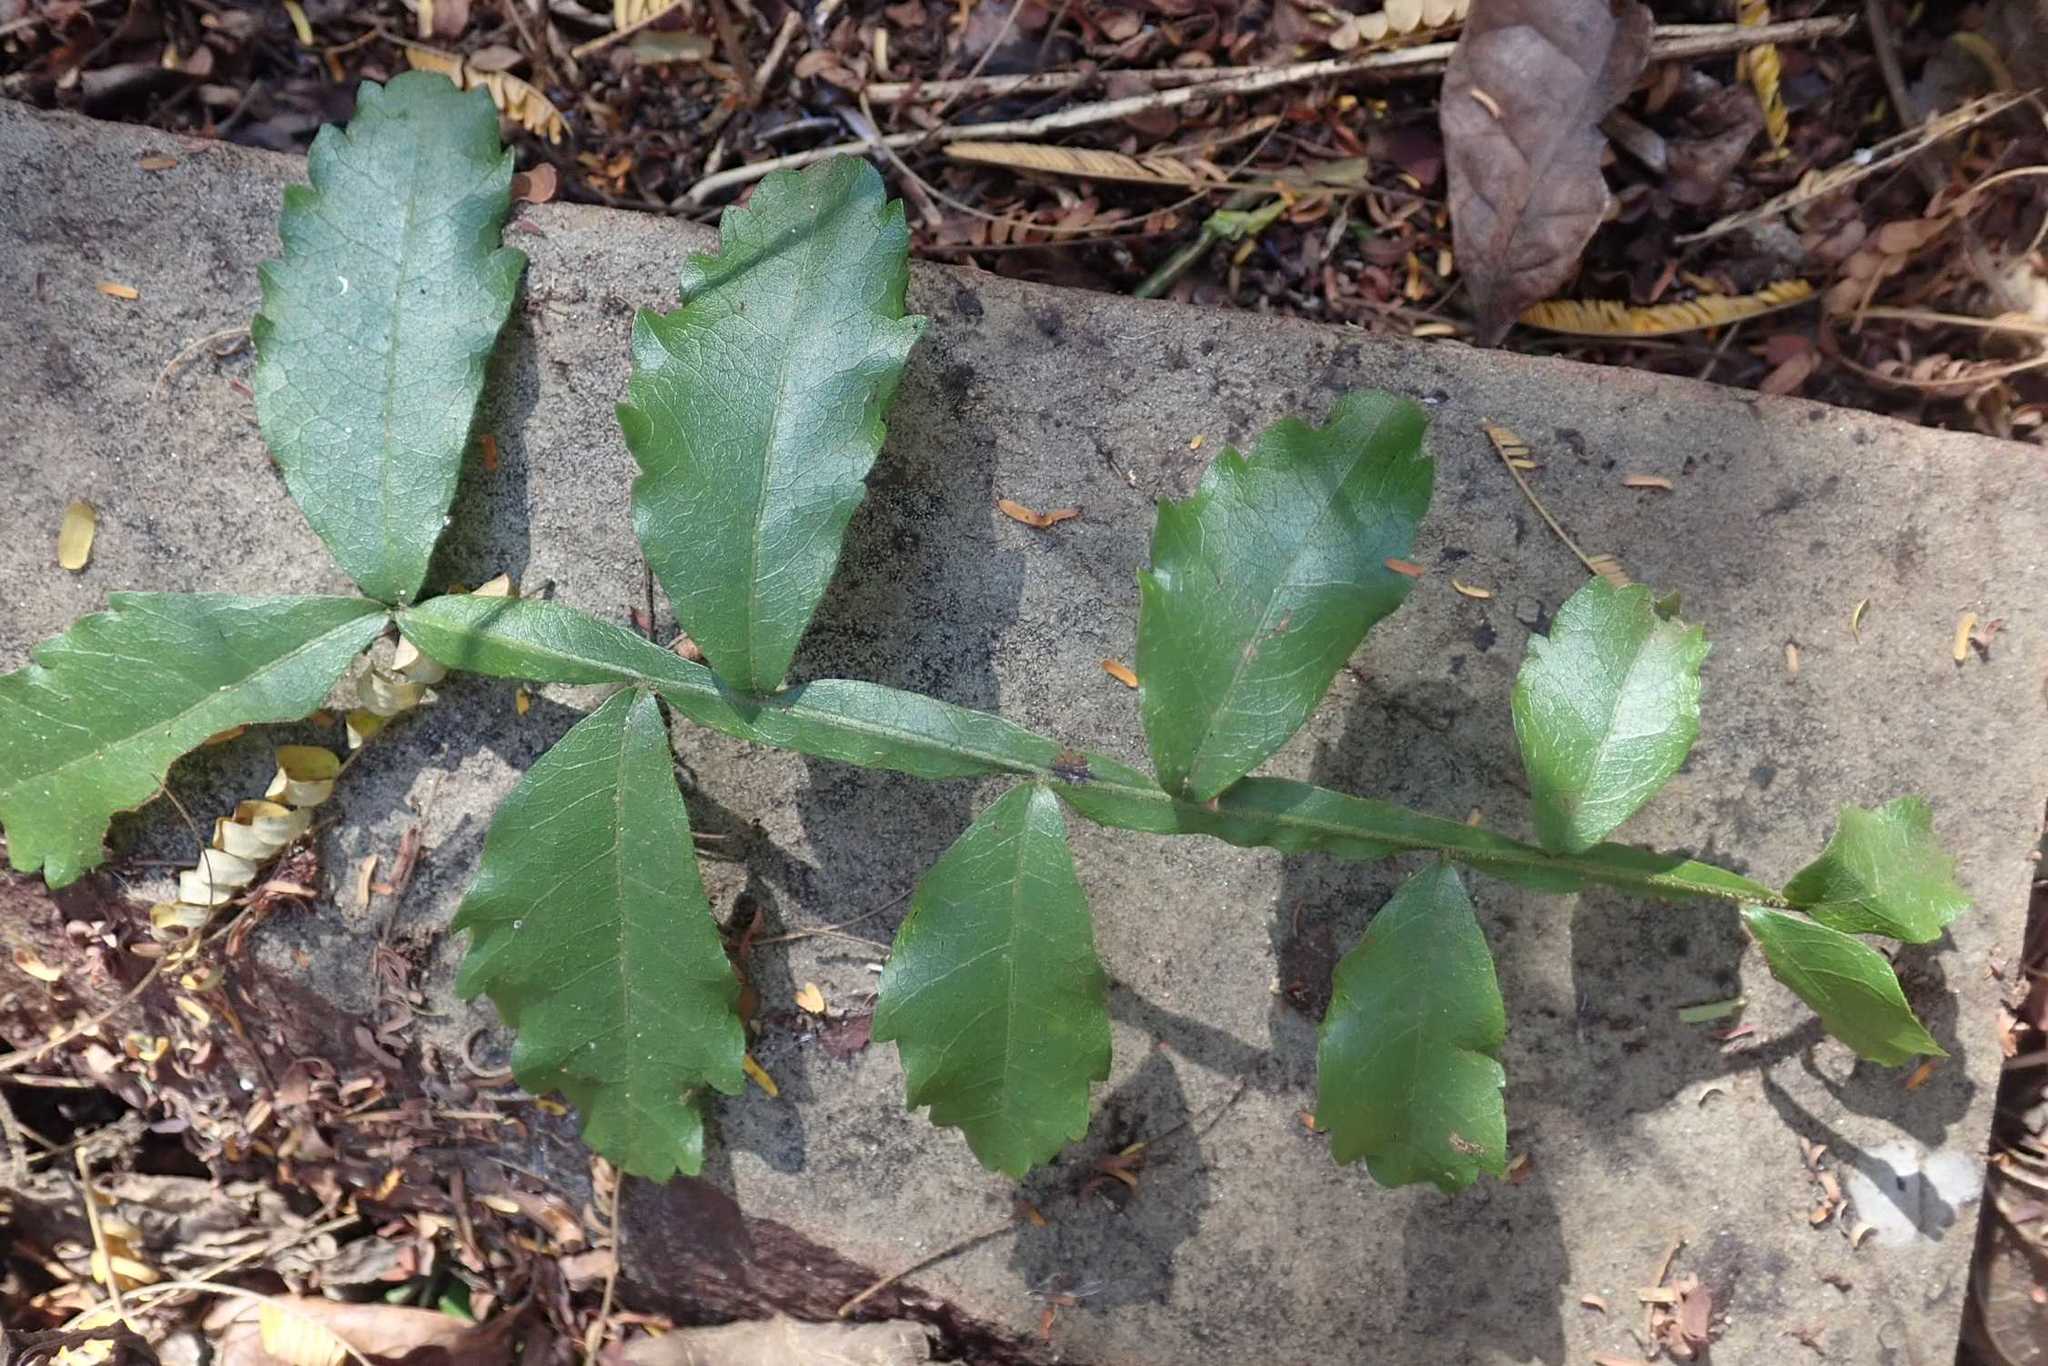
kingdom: Plantae
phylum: Tracheophyta
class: Magnoliopsida
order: Sapindales
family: Sapindaceae
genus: Hippobromus
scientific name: Hippobromus pauciflorus
